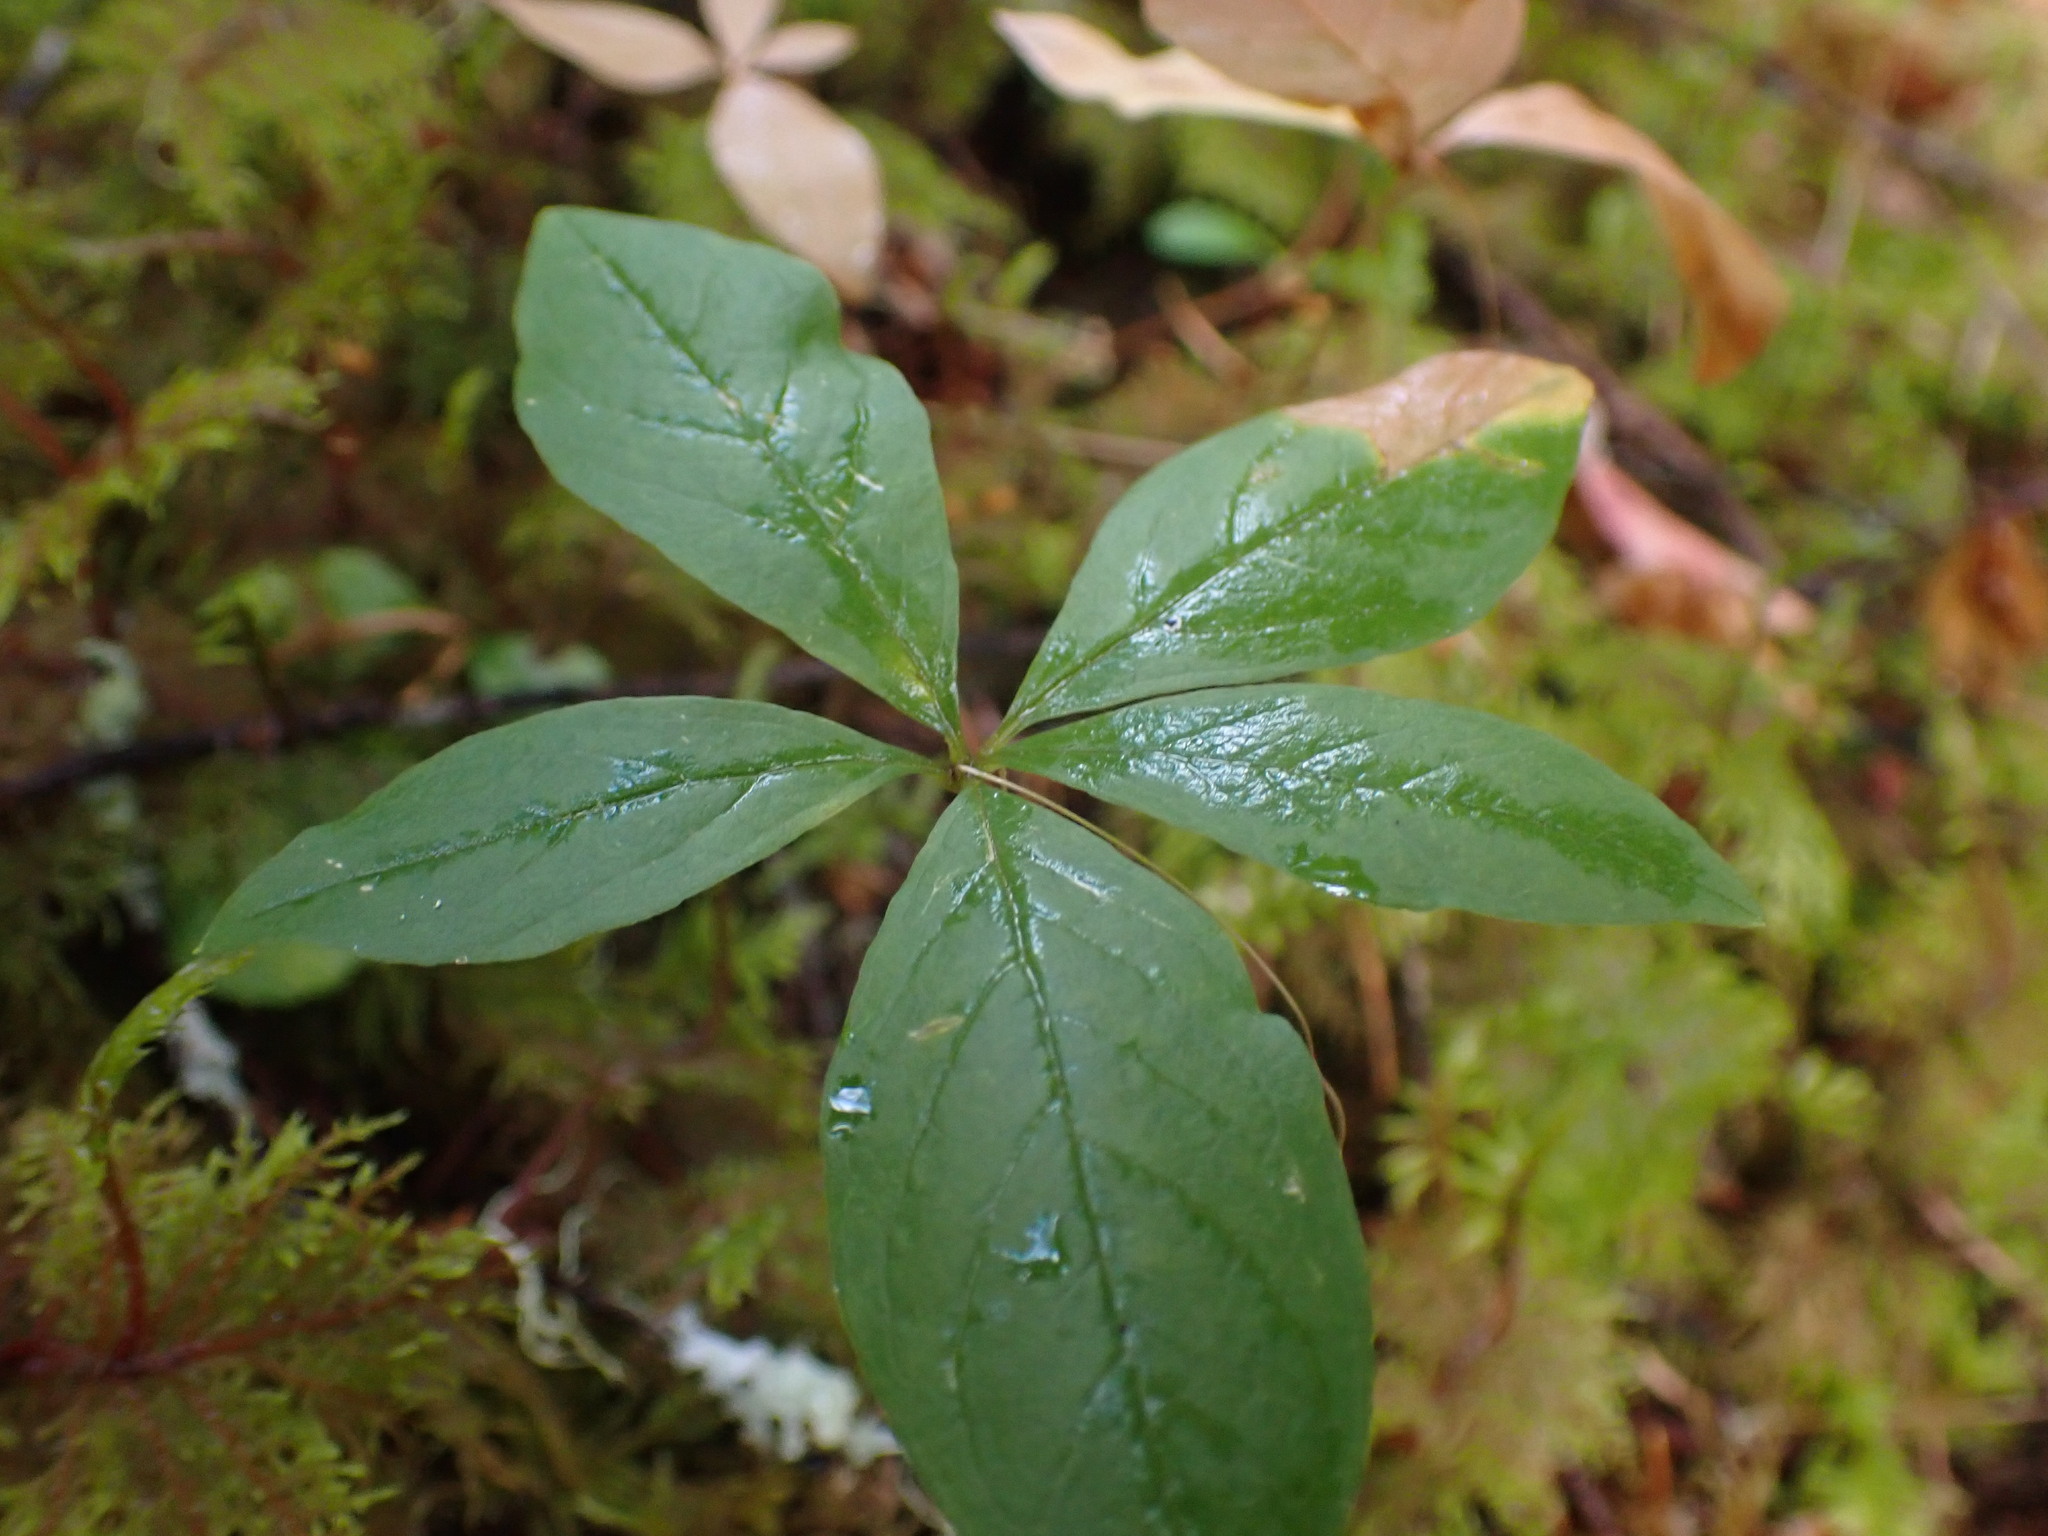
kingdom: Plantae
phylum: Tracheophyta
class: Magnoliopsida
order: Ericales
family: Primulaceae
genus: Lysimachia
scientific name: Lysimachia latifolia
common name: Pacific starflower
